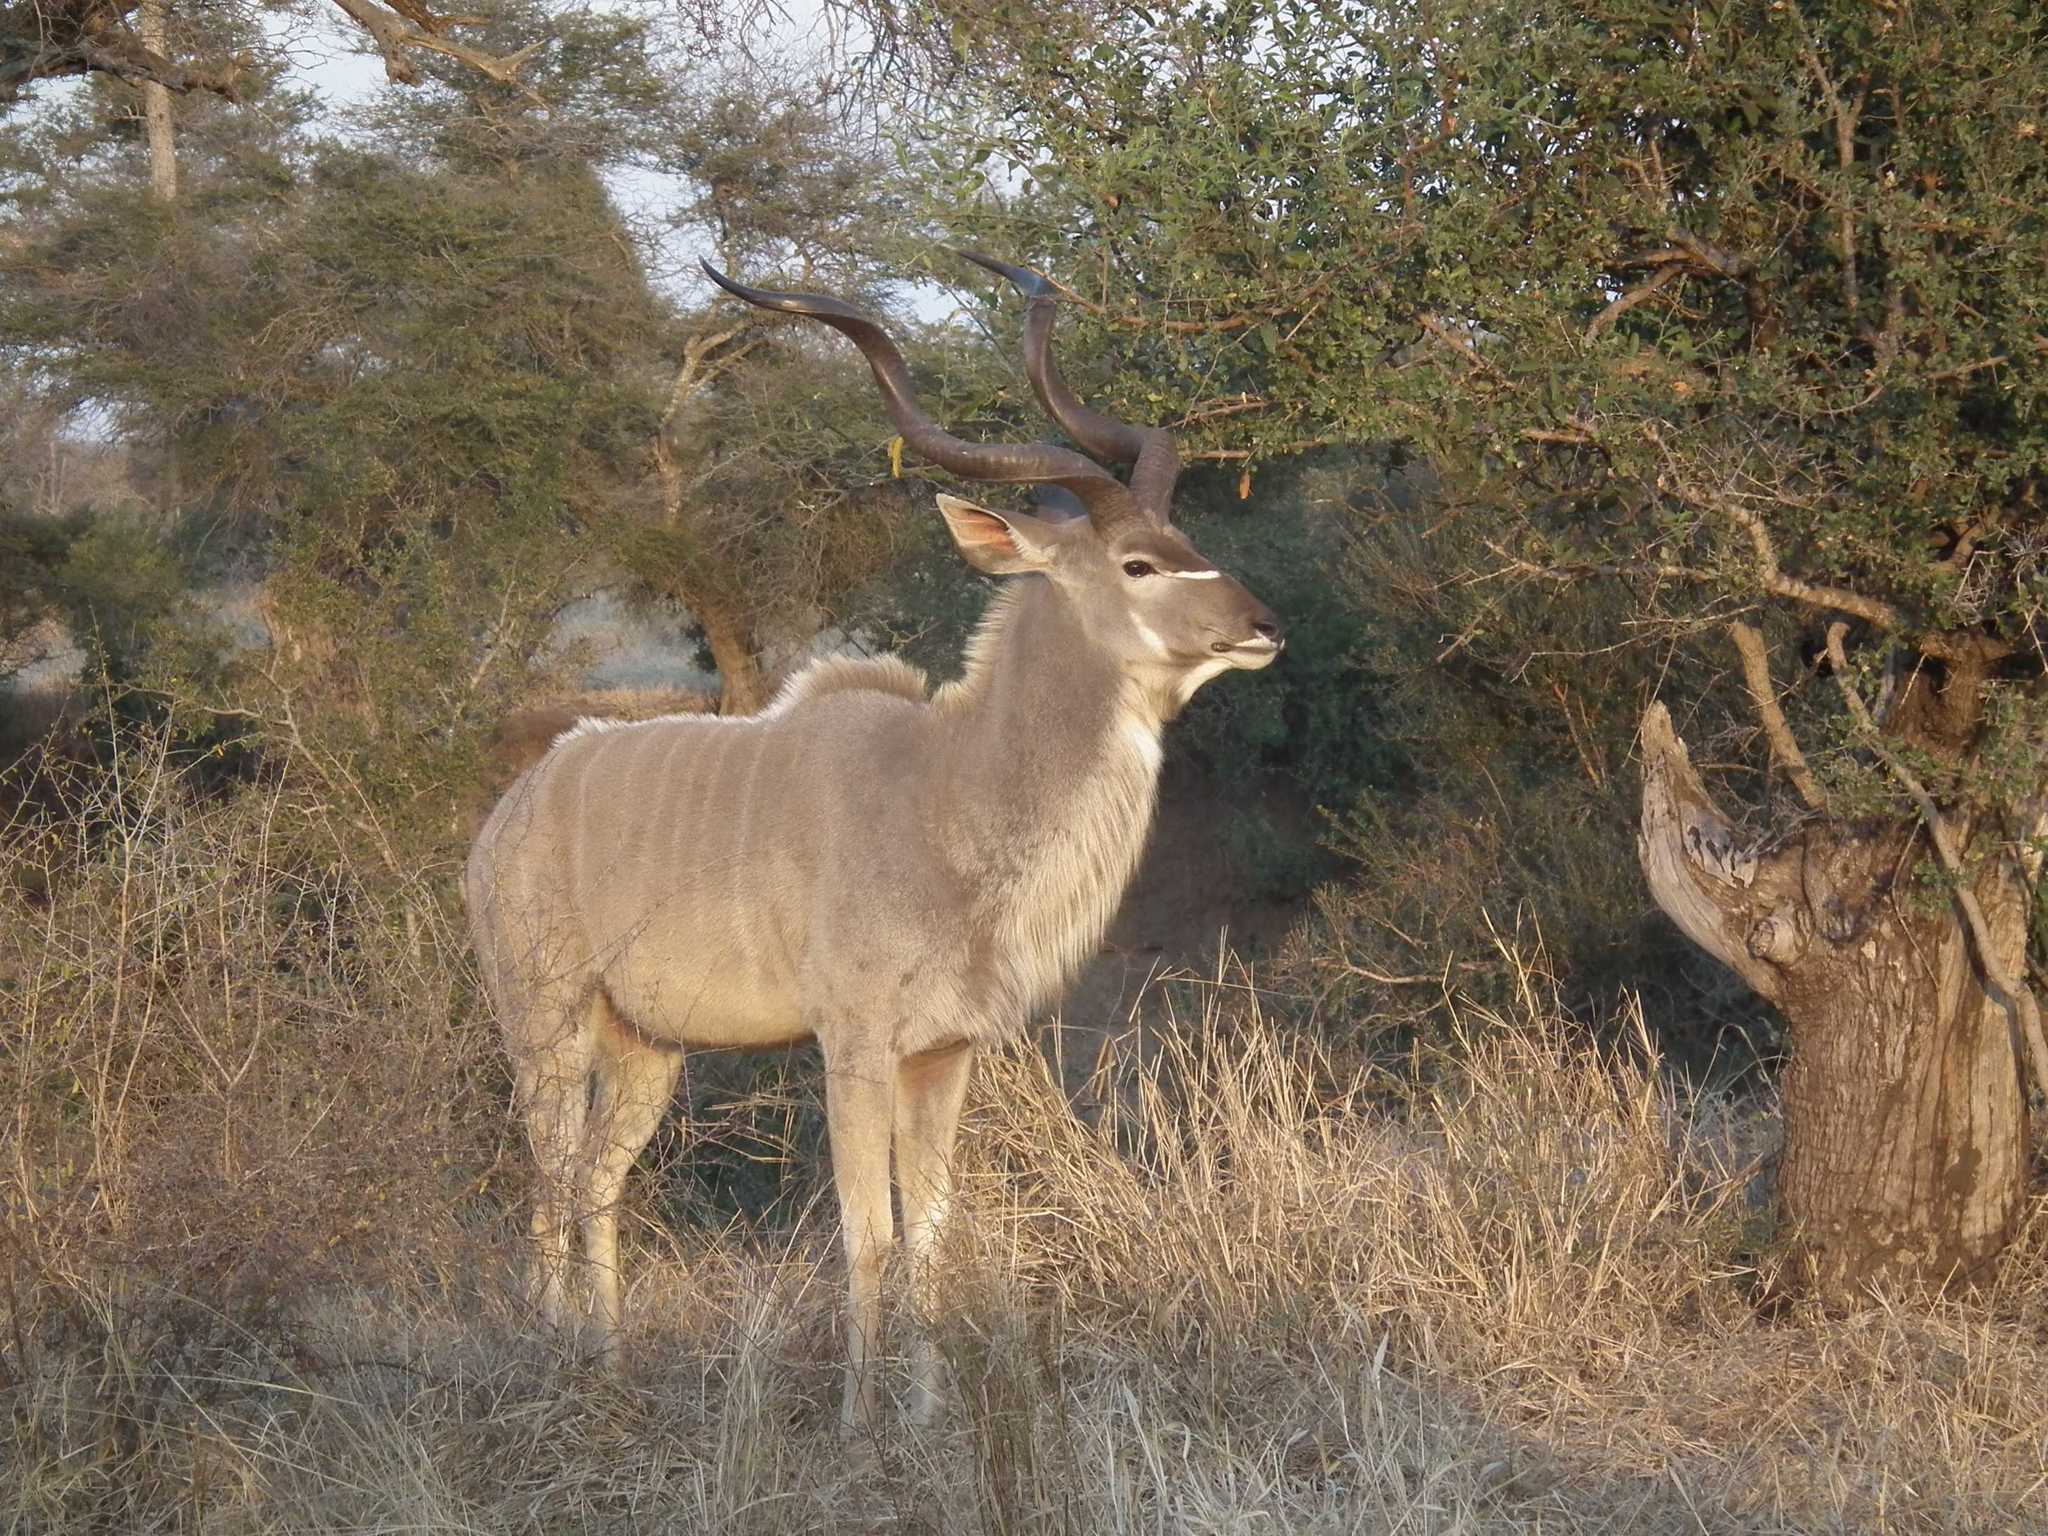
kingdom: Animalia
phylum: Chordata
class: Mammalia
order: Artiodactyla
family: Bovidae
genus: Tragelaphus
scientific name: Tragelaphus strepsiceros
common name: Greater kudu
